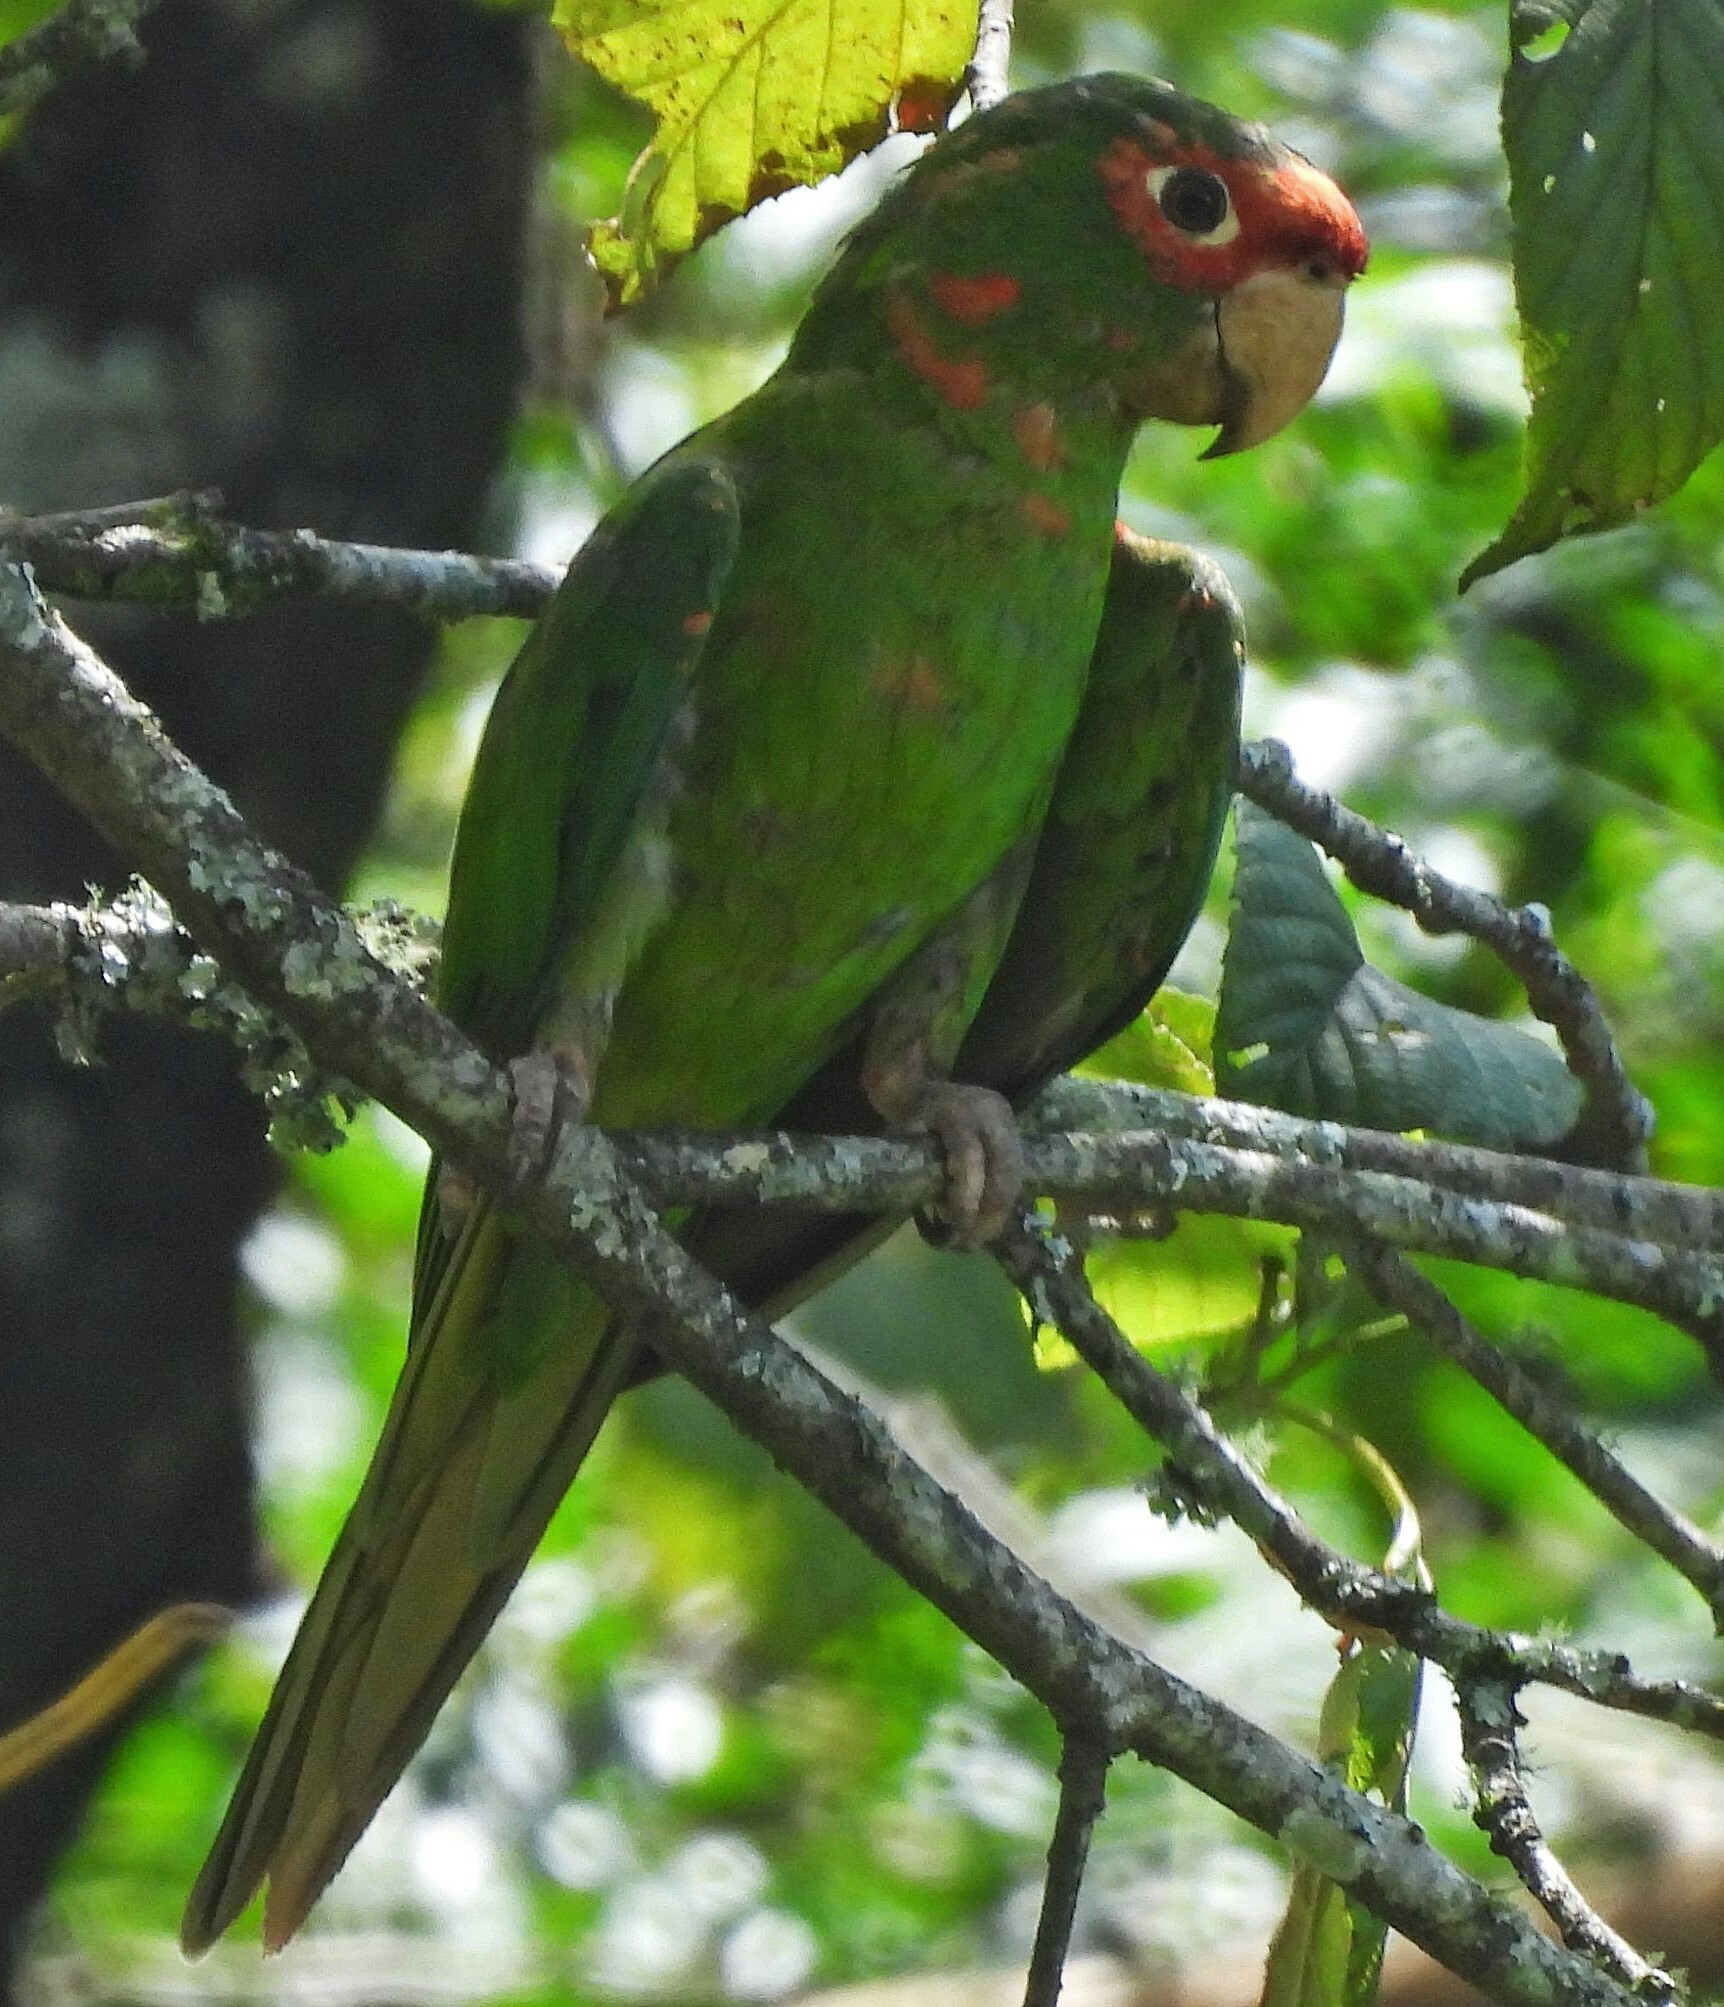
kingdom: Animalia
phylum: Chordata
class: Aves
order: Psittaciformes
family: Psittacidae
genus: Aratinga
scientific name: Aratinga mitrata
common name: Mitred parakeet
